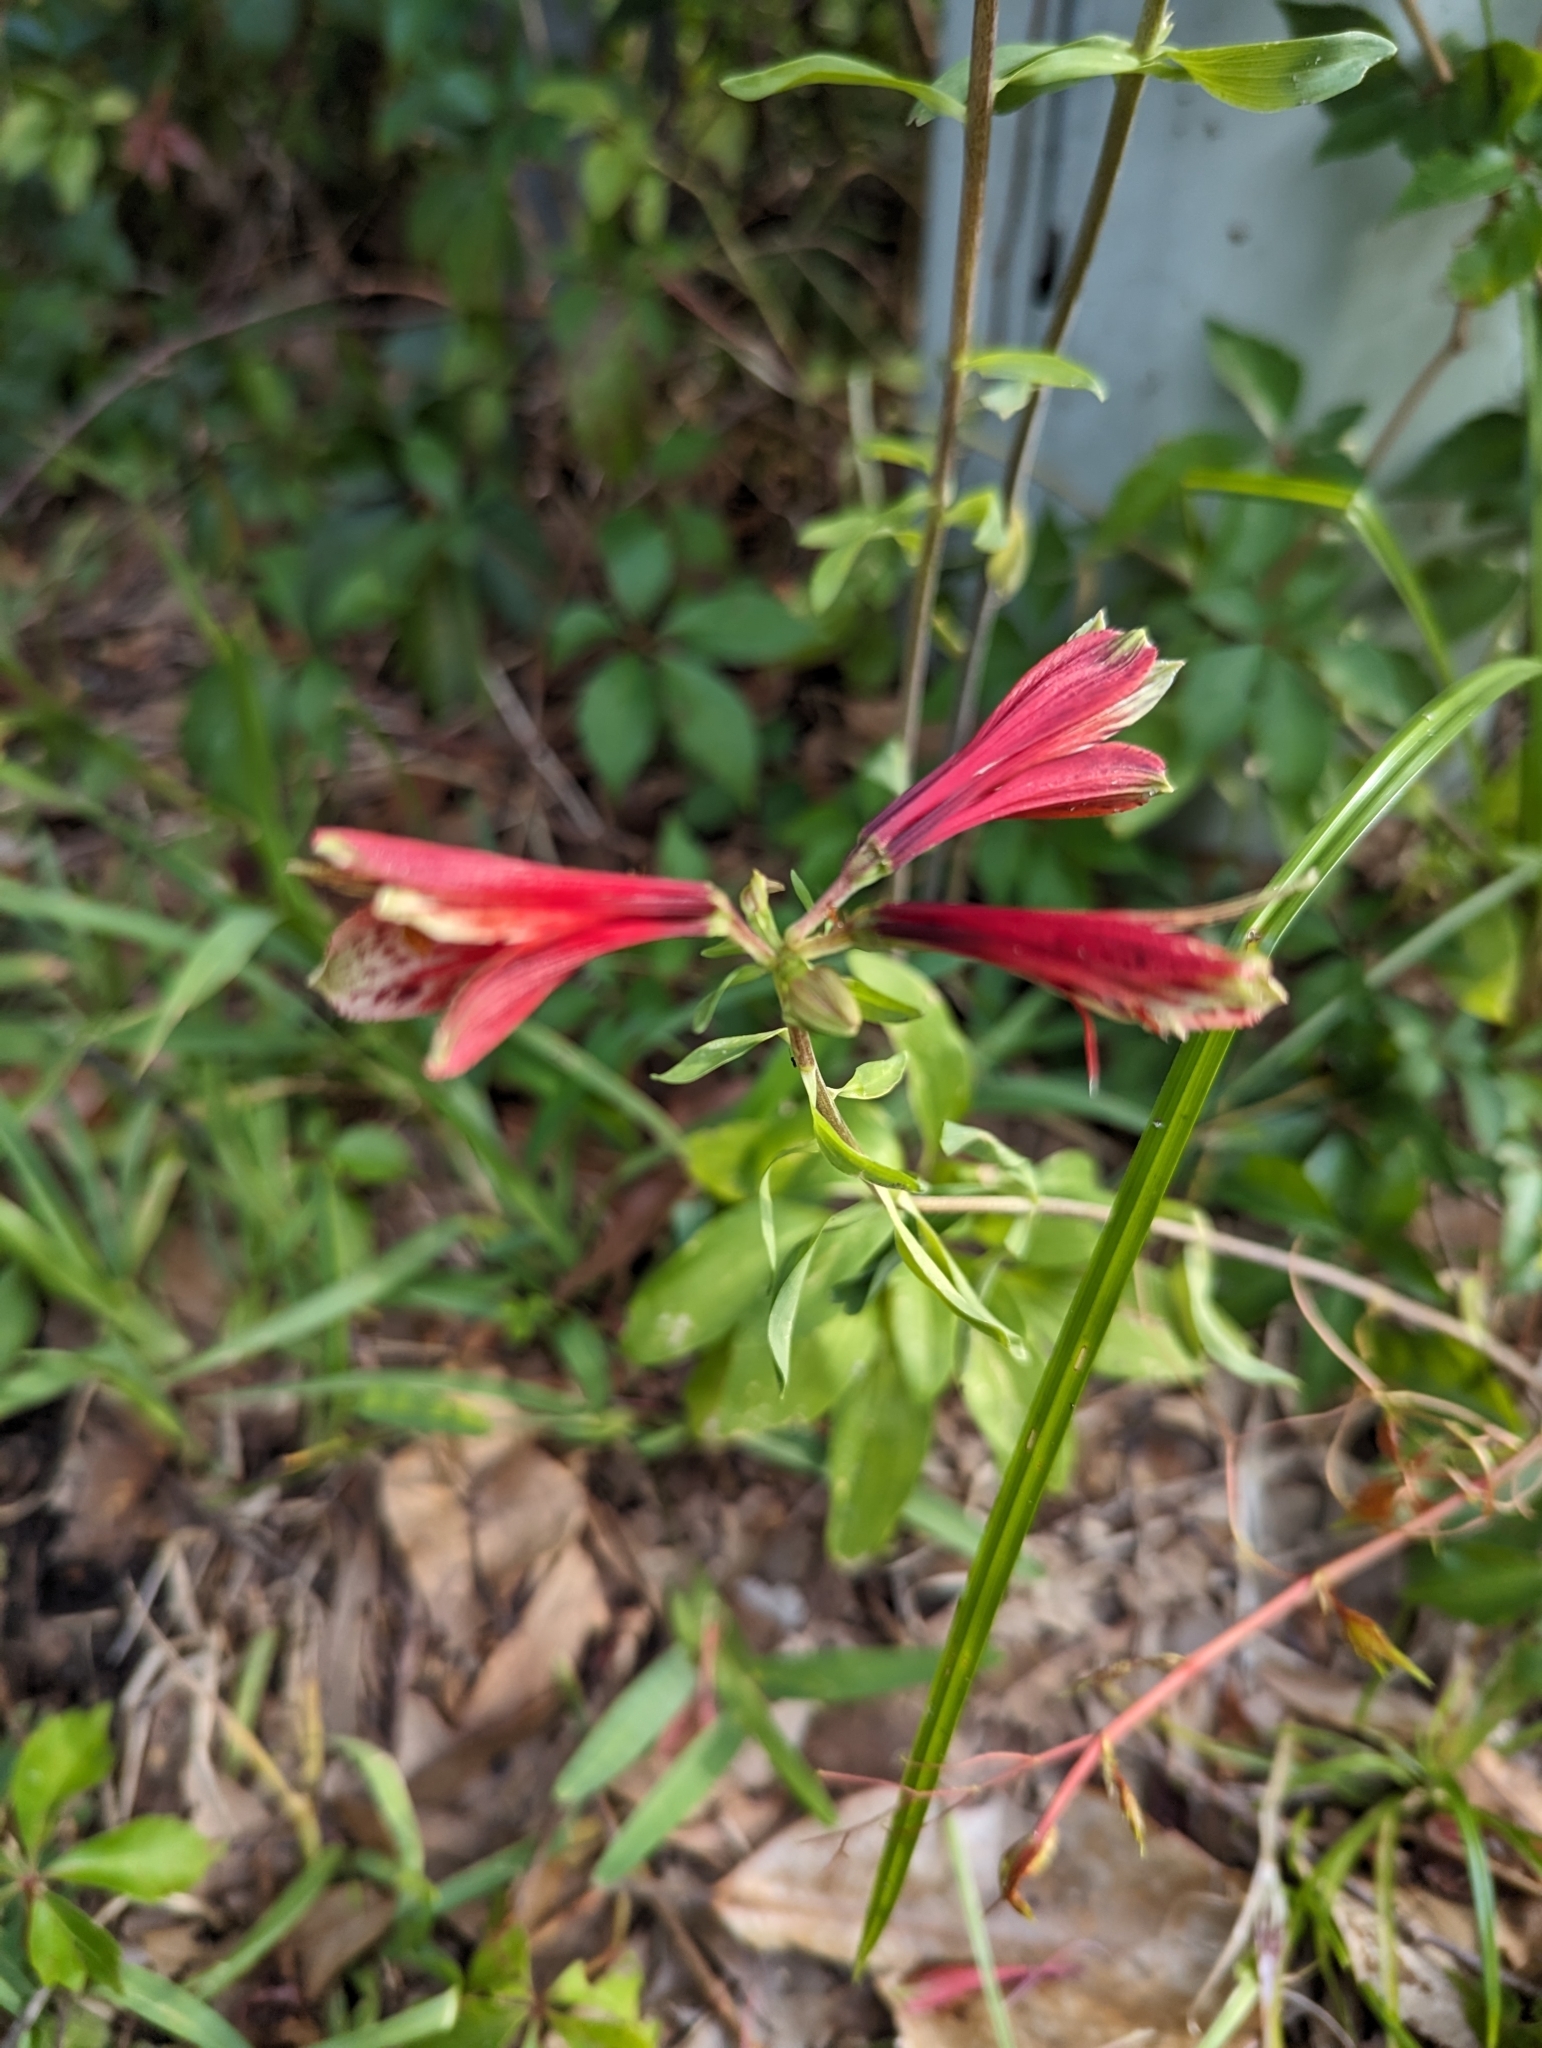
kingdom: Plantae
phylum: Tracheophyta
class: Liliopsida
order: Liliales
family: Alstroemeriaceae
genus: Alstroemeria
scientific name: Alstroemeria psittacina
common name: Peruvian-lily
